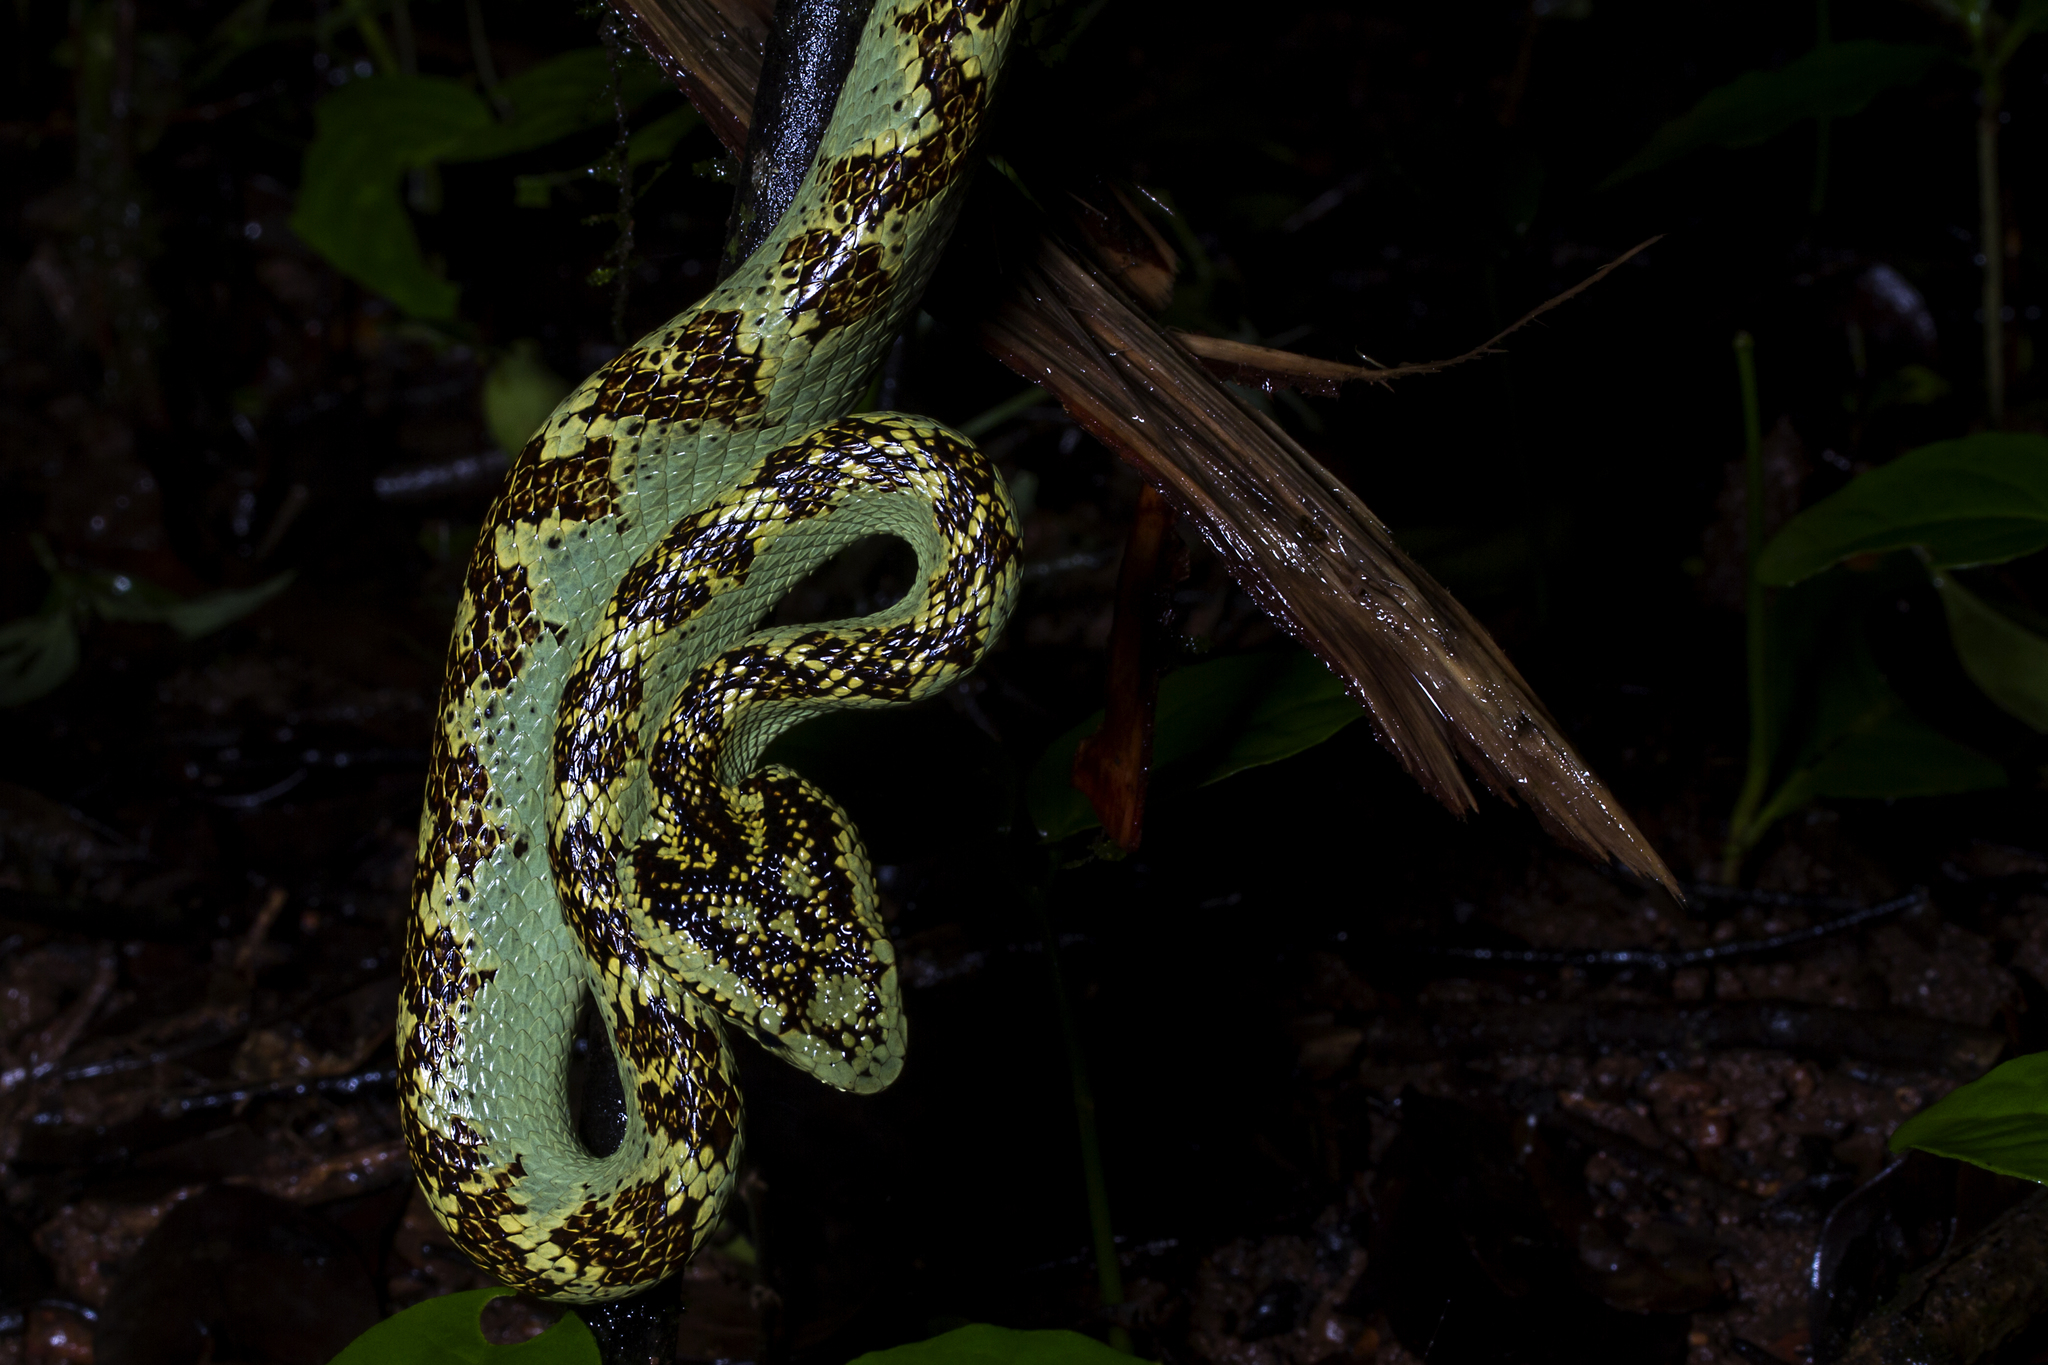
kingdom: Animalia
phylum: Chordata
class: Squamata
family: Viperidae
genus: Craspedocephalus
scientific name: Craspedocephalus malabaricus
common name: Malabarian pit viper
